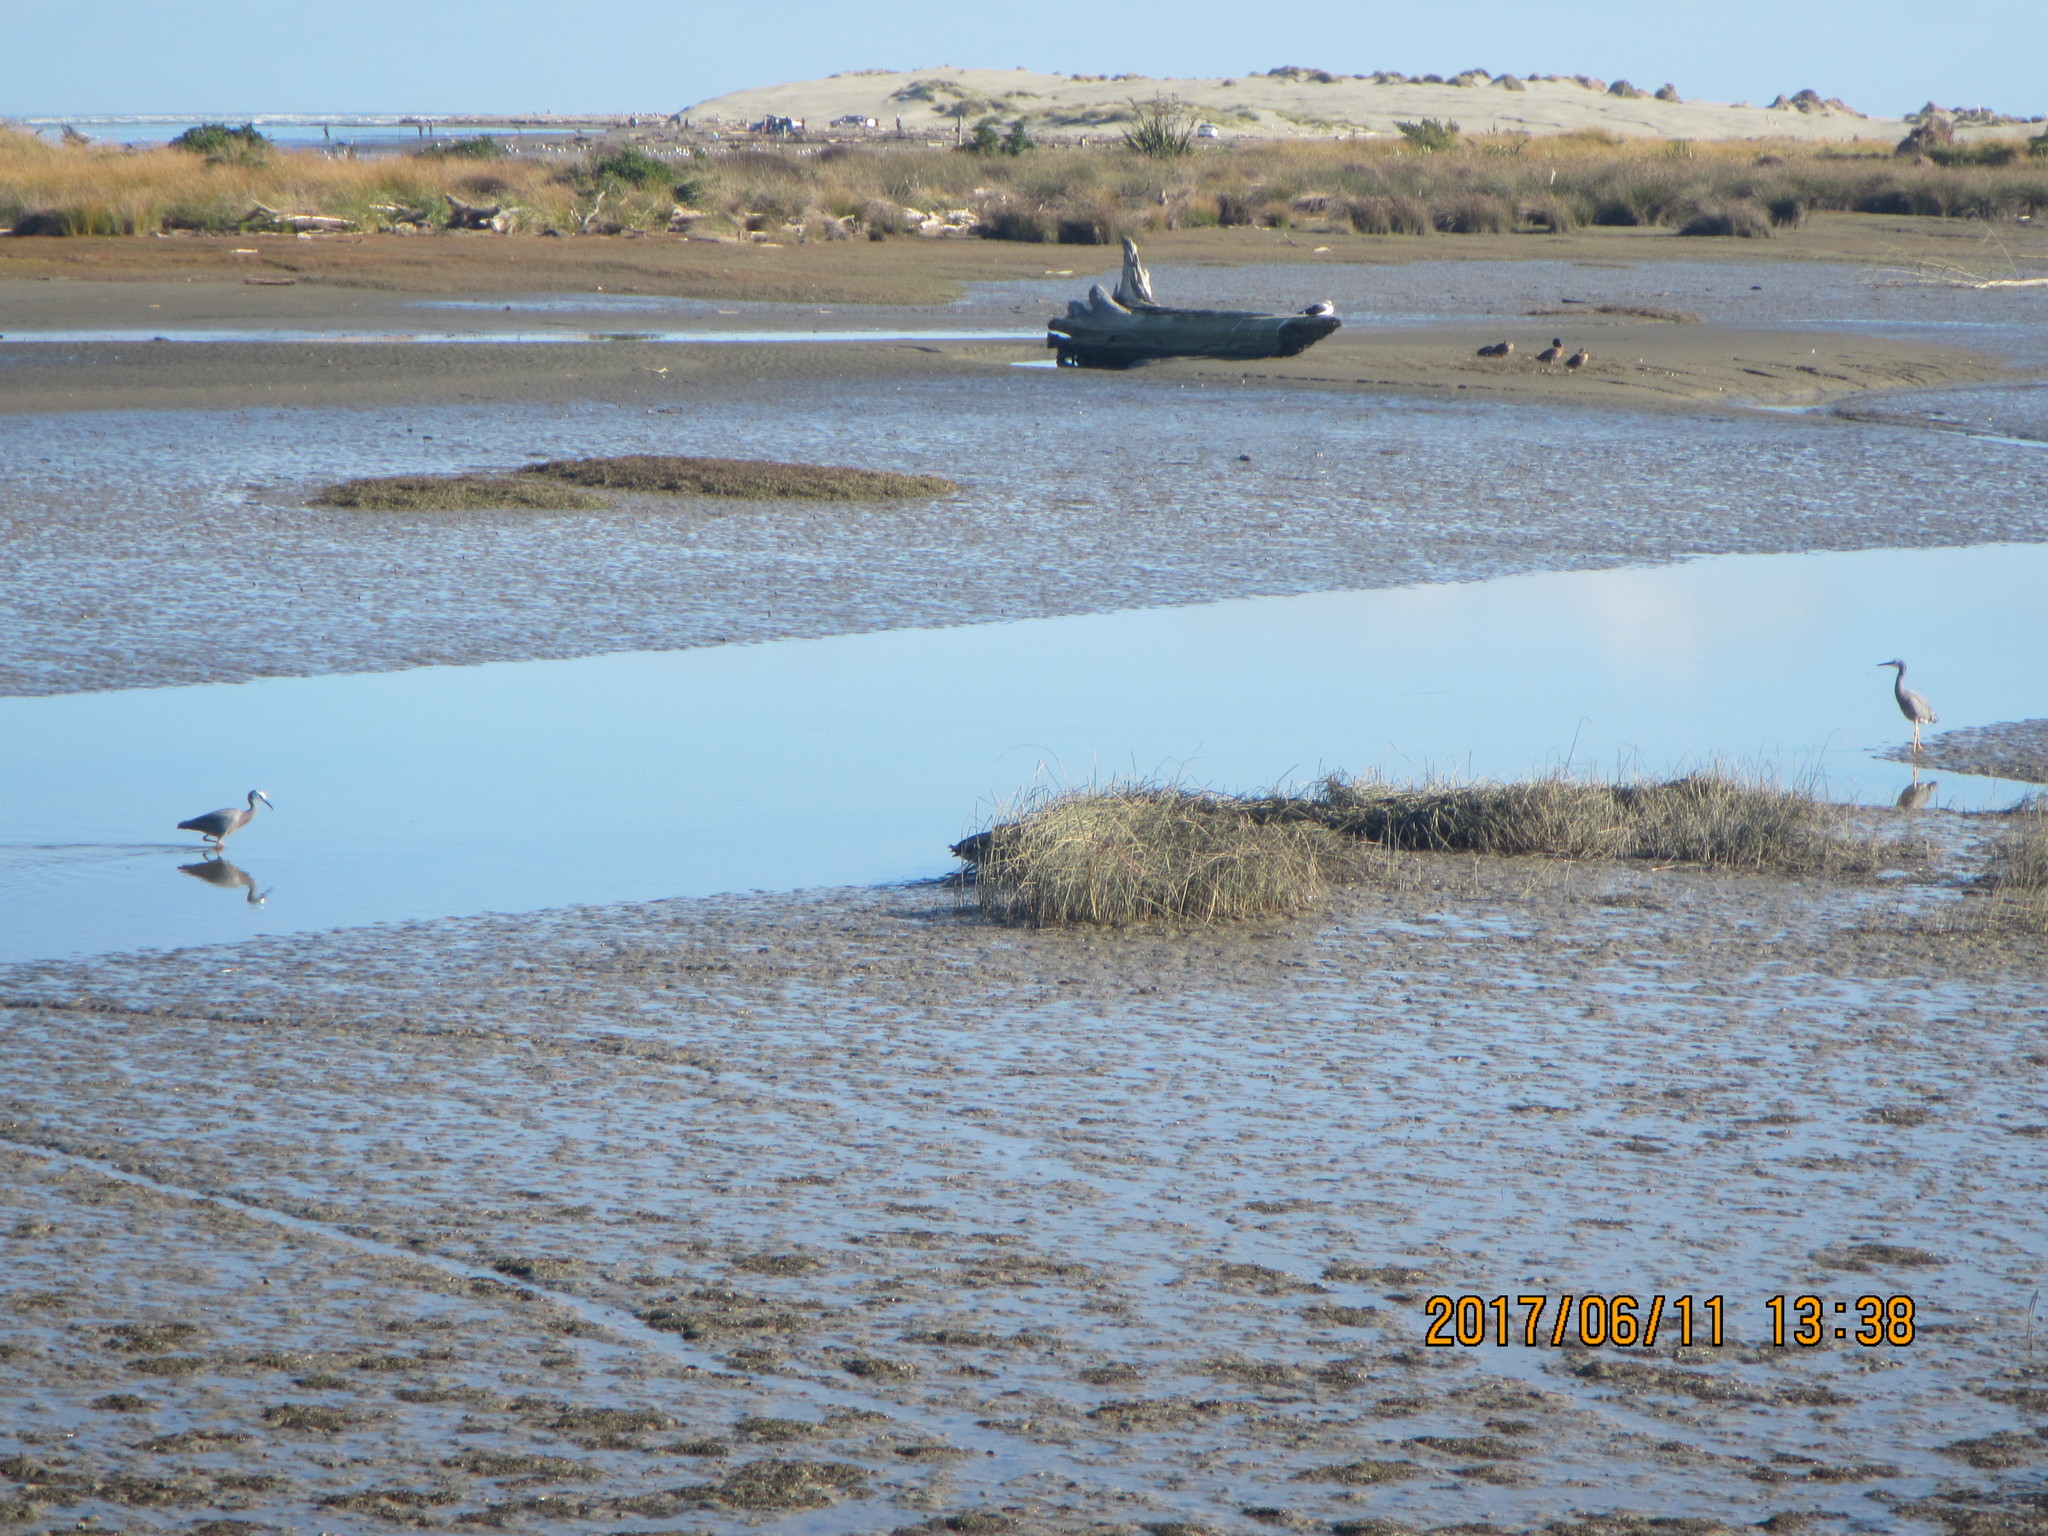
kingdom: Animalia
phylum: Chordata
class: Aves
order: Pelecaniformes
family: Ardeidae
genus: Egretta
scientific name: Egretta novaehollandiae
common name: White-faced heron
